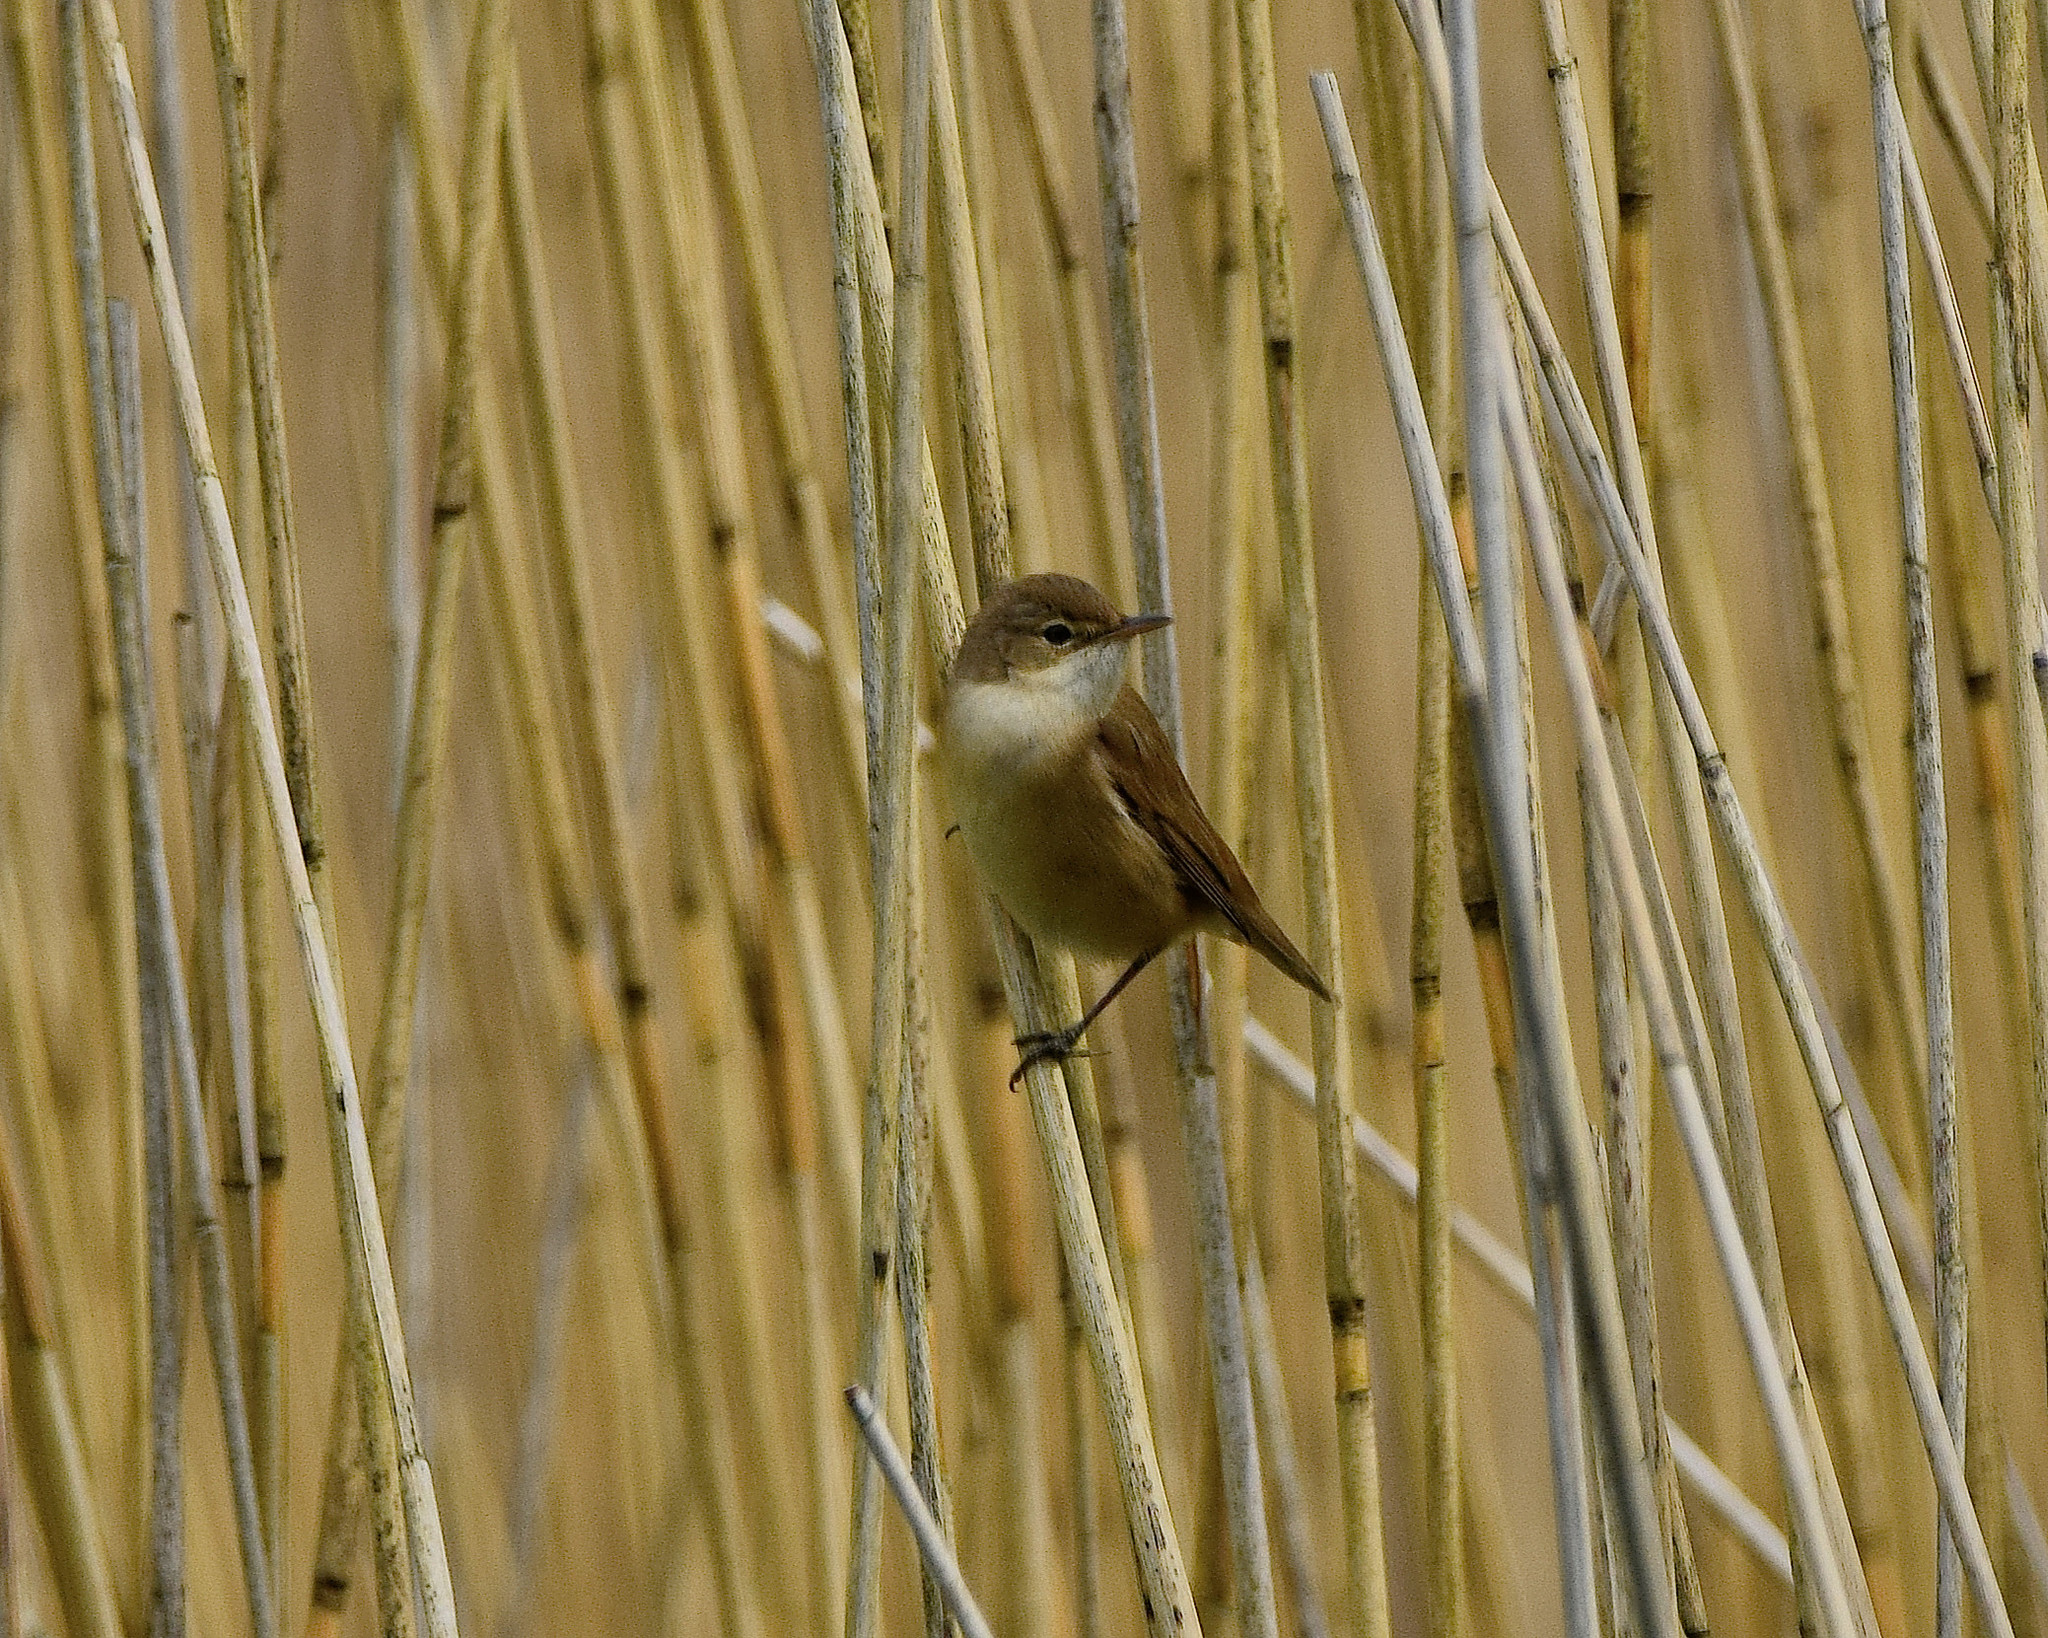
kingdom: Animalia
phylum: Chordata
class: Aves
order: Passeriformes
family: Acrocephalidae
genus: Acrocephalus
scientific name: Acrocephalus scirpaceus
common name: Eurasian reed warbler
